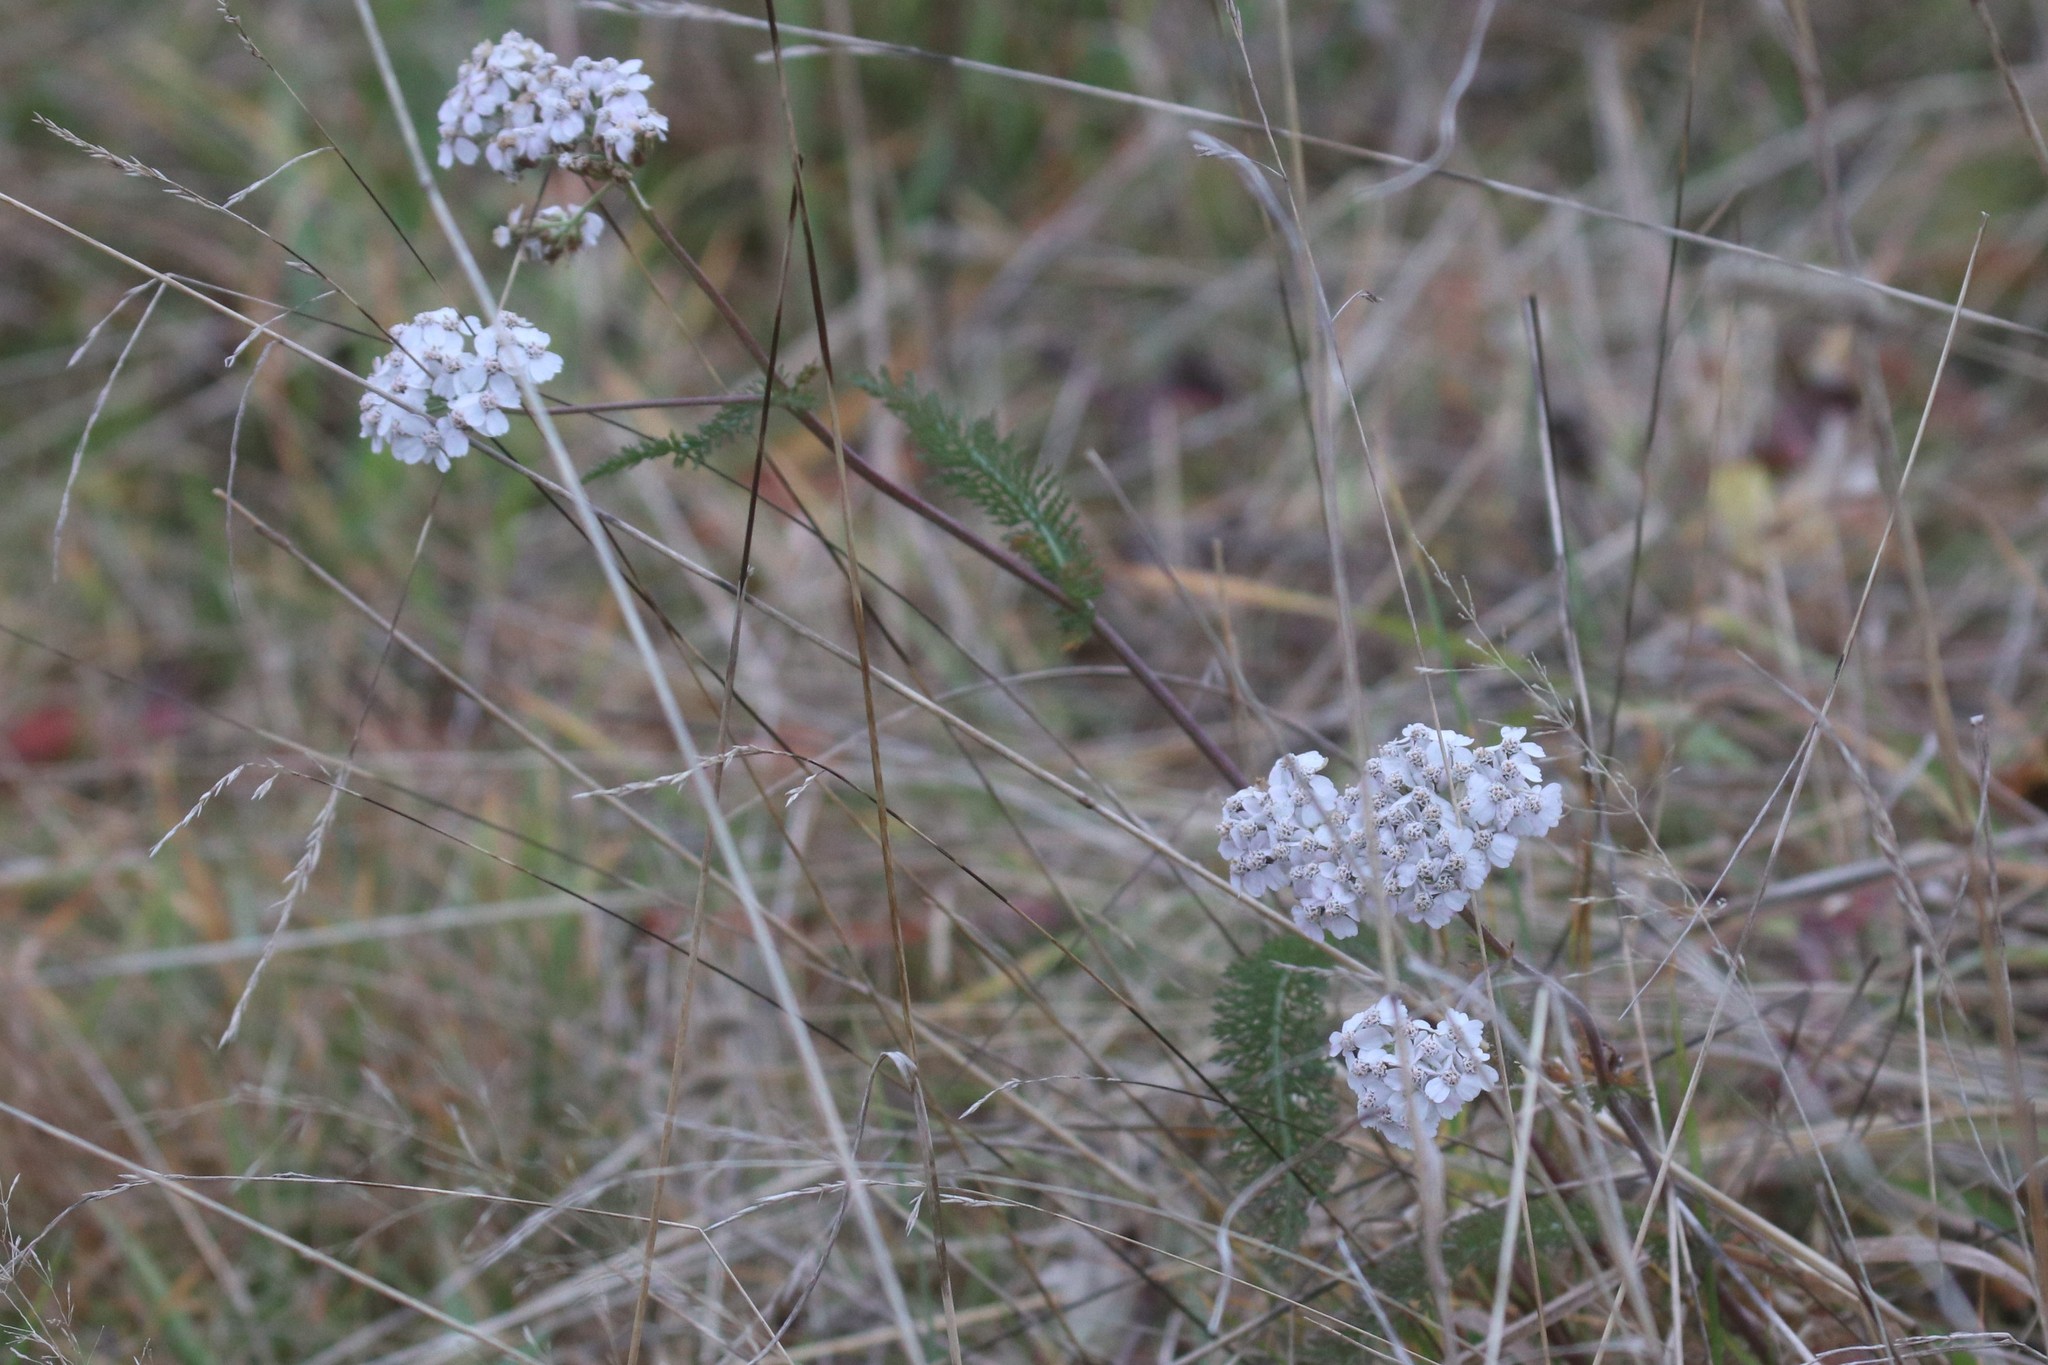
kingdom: Plantae
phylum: Tracheophyta
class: Magnoliopsida
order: Asterales
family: Asteraceae
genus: Achillea
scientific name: Achillea millefolium
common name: Yarrow
